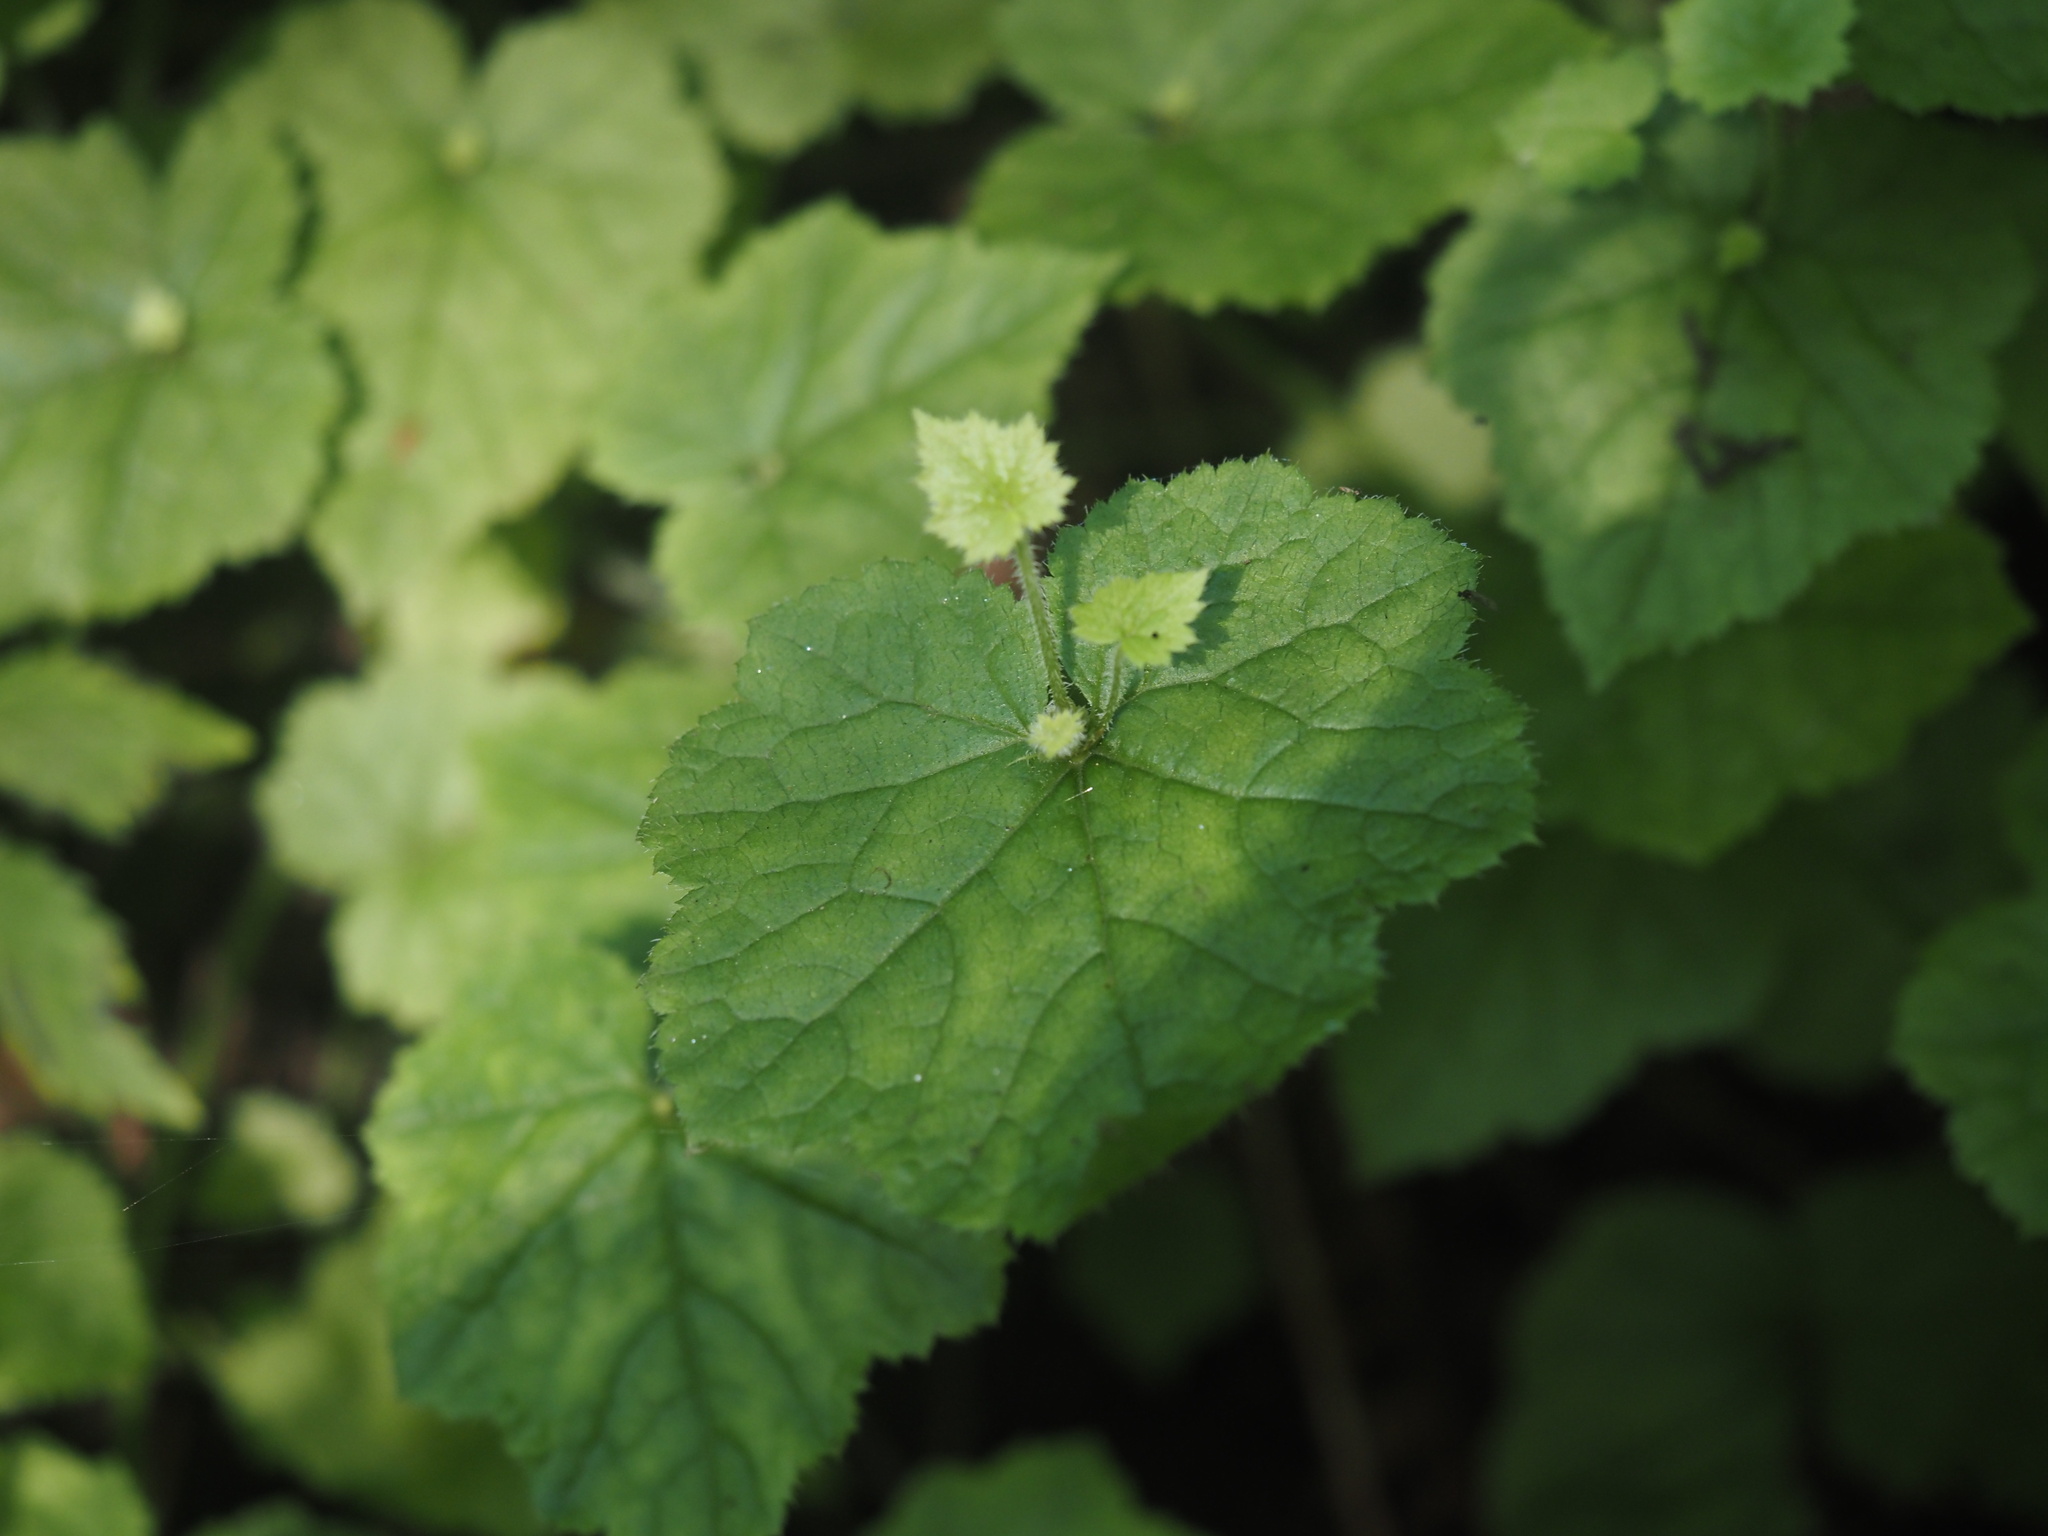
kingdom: Plantae
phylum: Tracheophyta
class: Magnoliopsida
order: Saxifragales
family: Saxifragaceae
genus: Tolmiea
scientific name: Tolmiea menziesii
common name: Pick-a-back-plant
